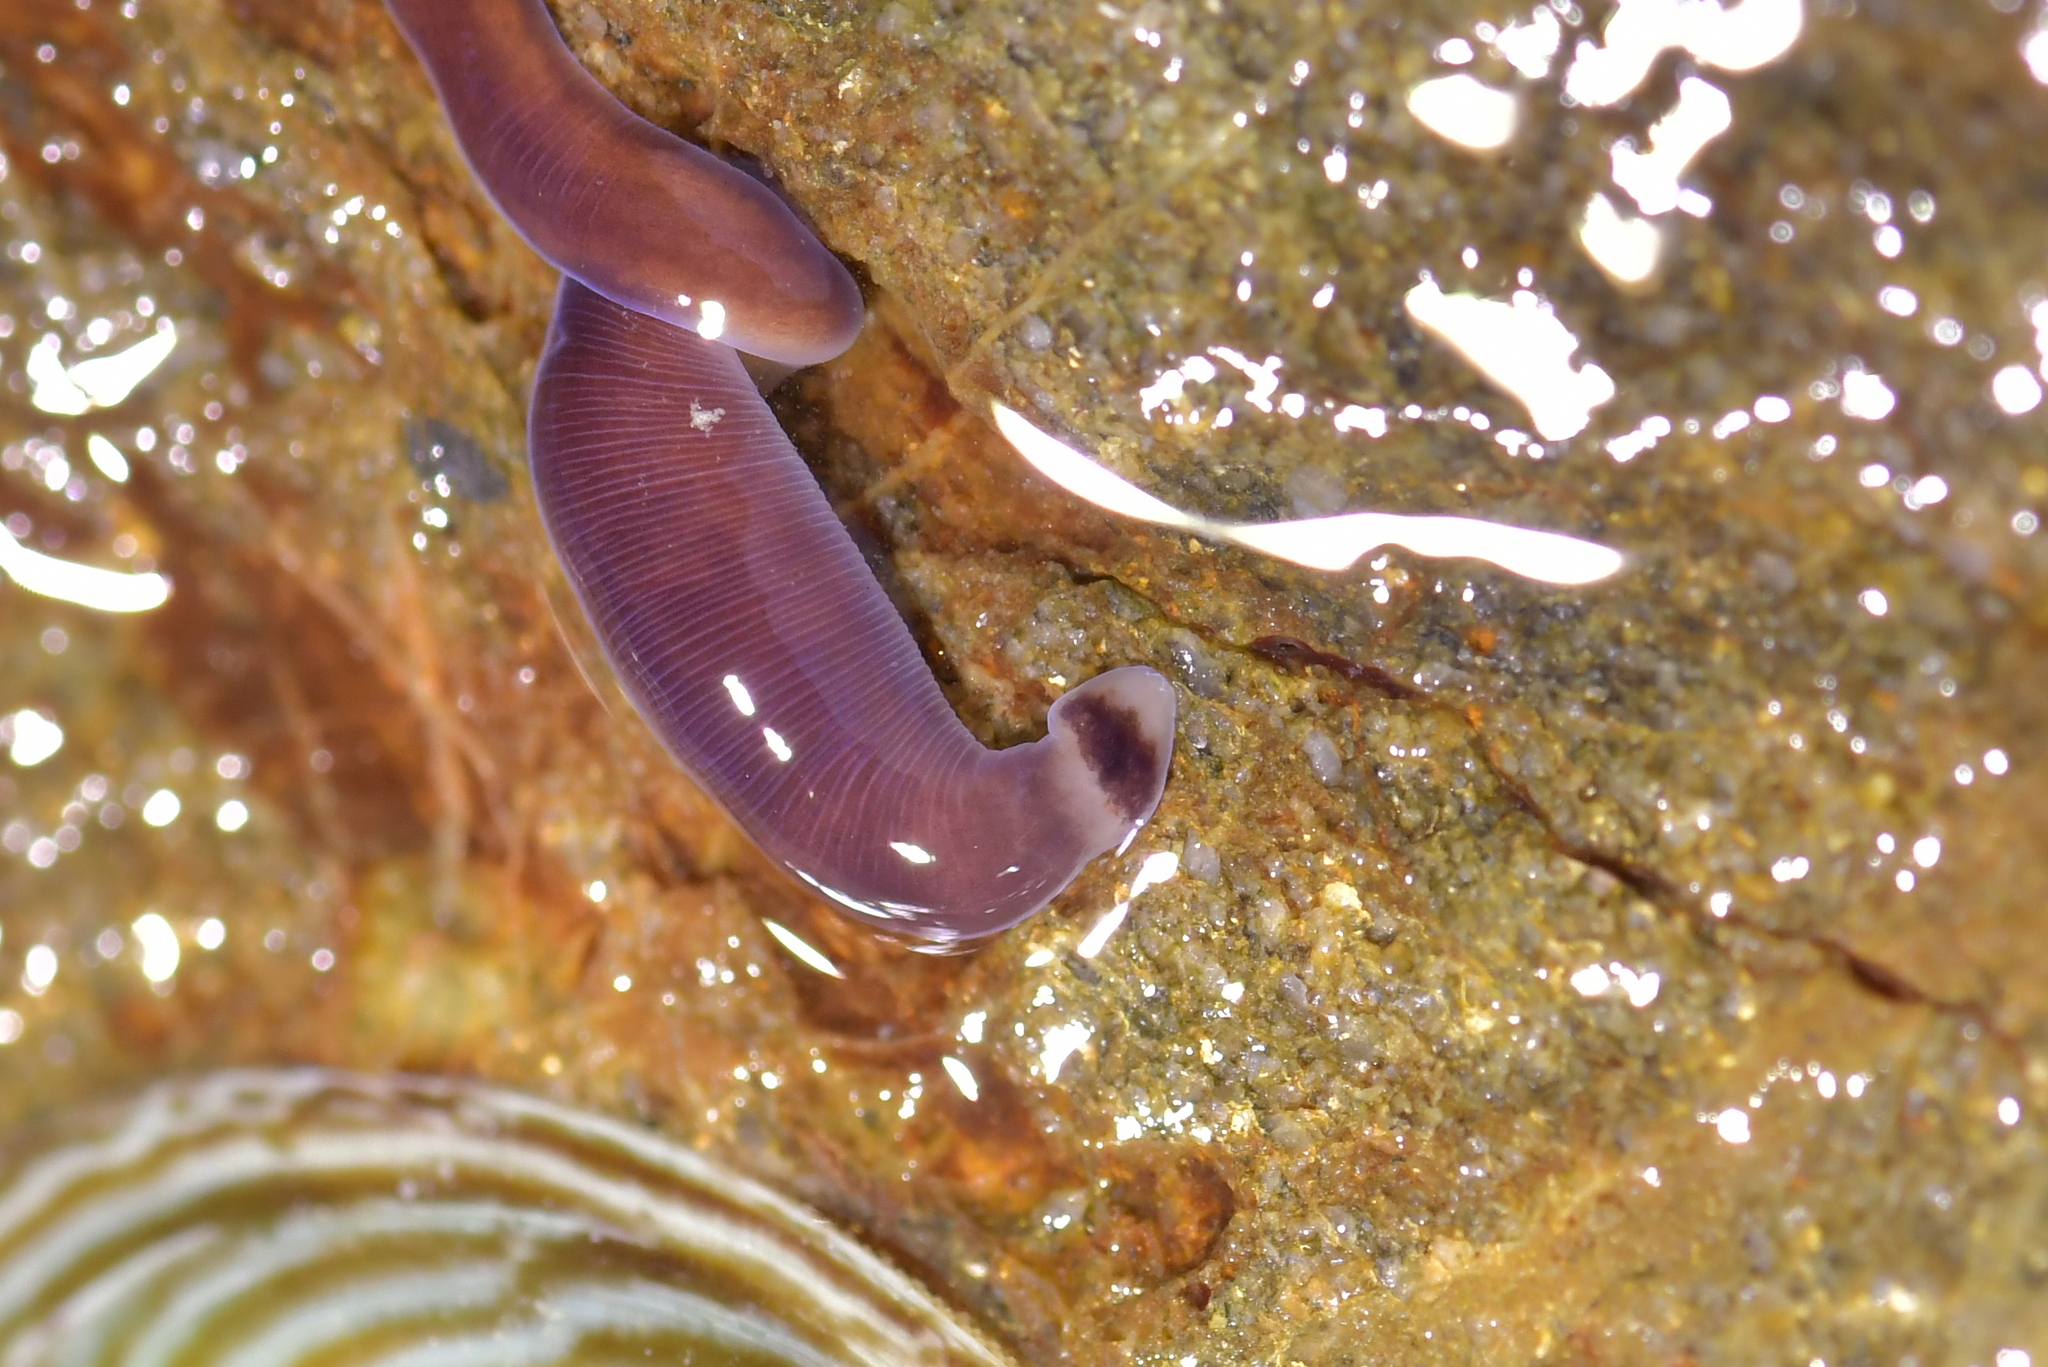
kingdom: Animalia
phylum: Nemertea
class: Hoplonemertea
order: Monostilifera
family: Neesiidae
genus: Noteonemertes
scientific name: Noteonemertes novaezealandiae
